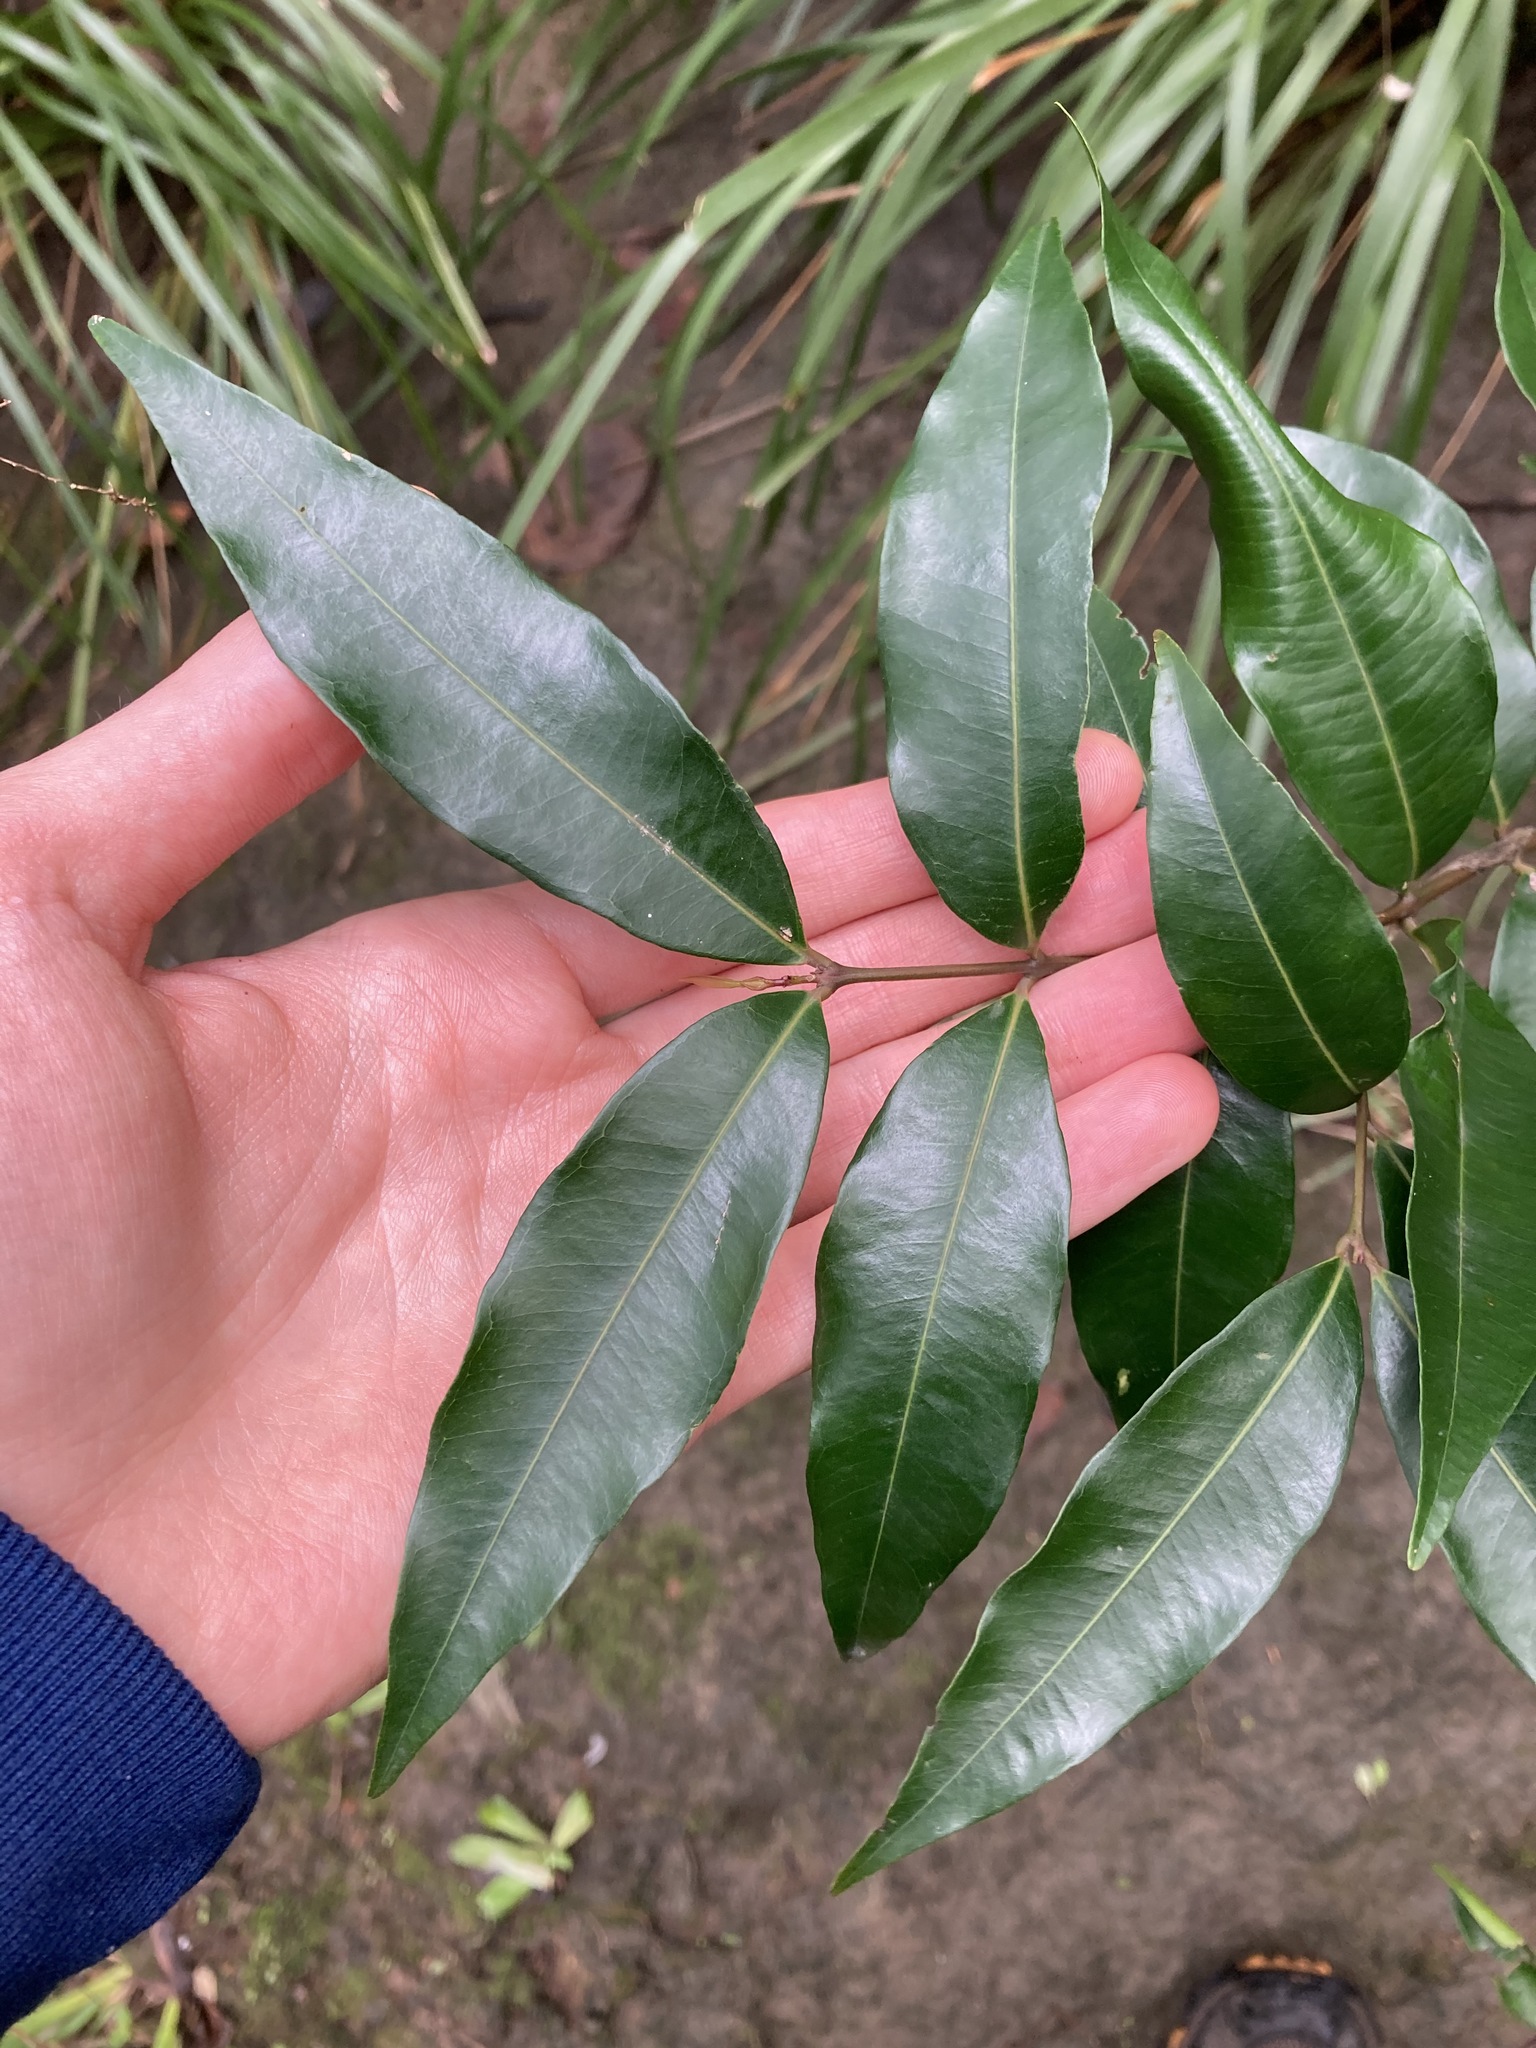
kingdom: Plantae
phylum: Tracheophyta
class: Magnoliopsida
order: Myrtales
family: Myrtaceae
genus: Syzygium
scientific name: Syzygium floribundum
